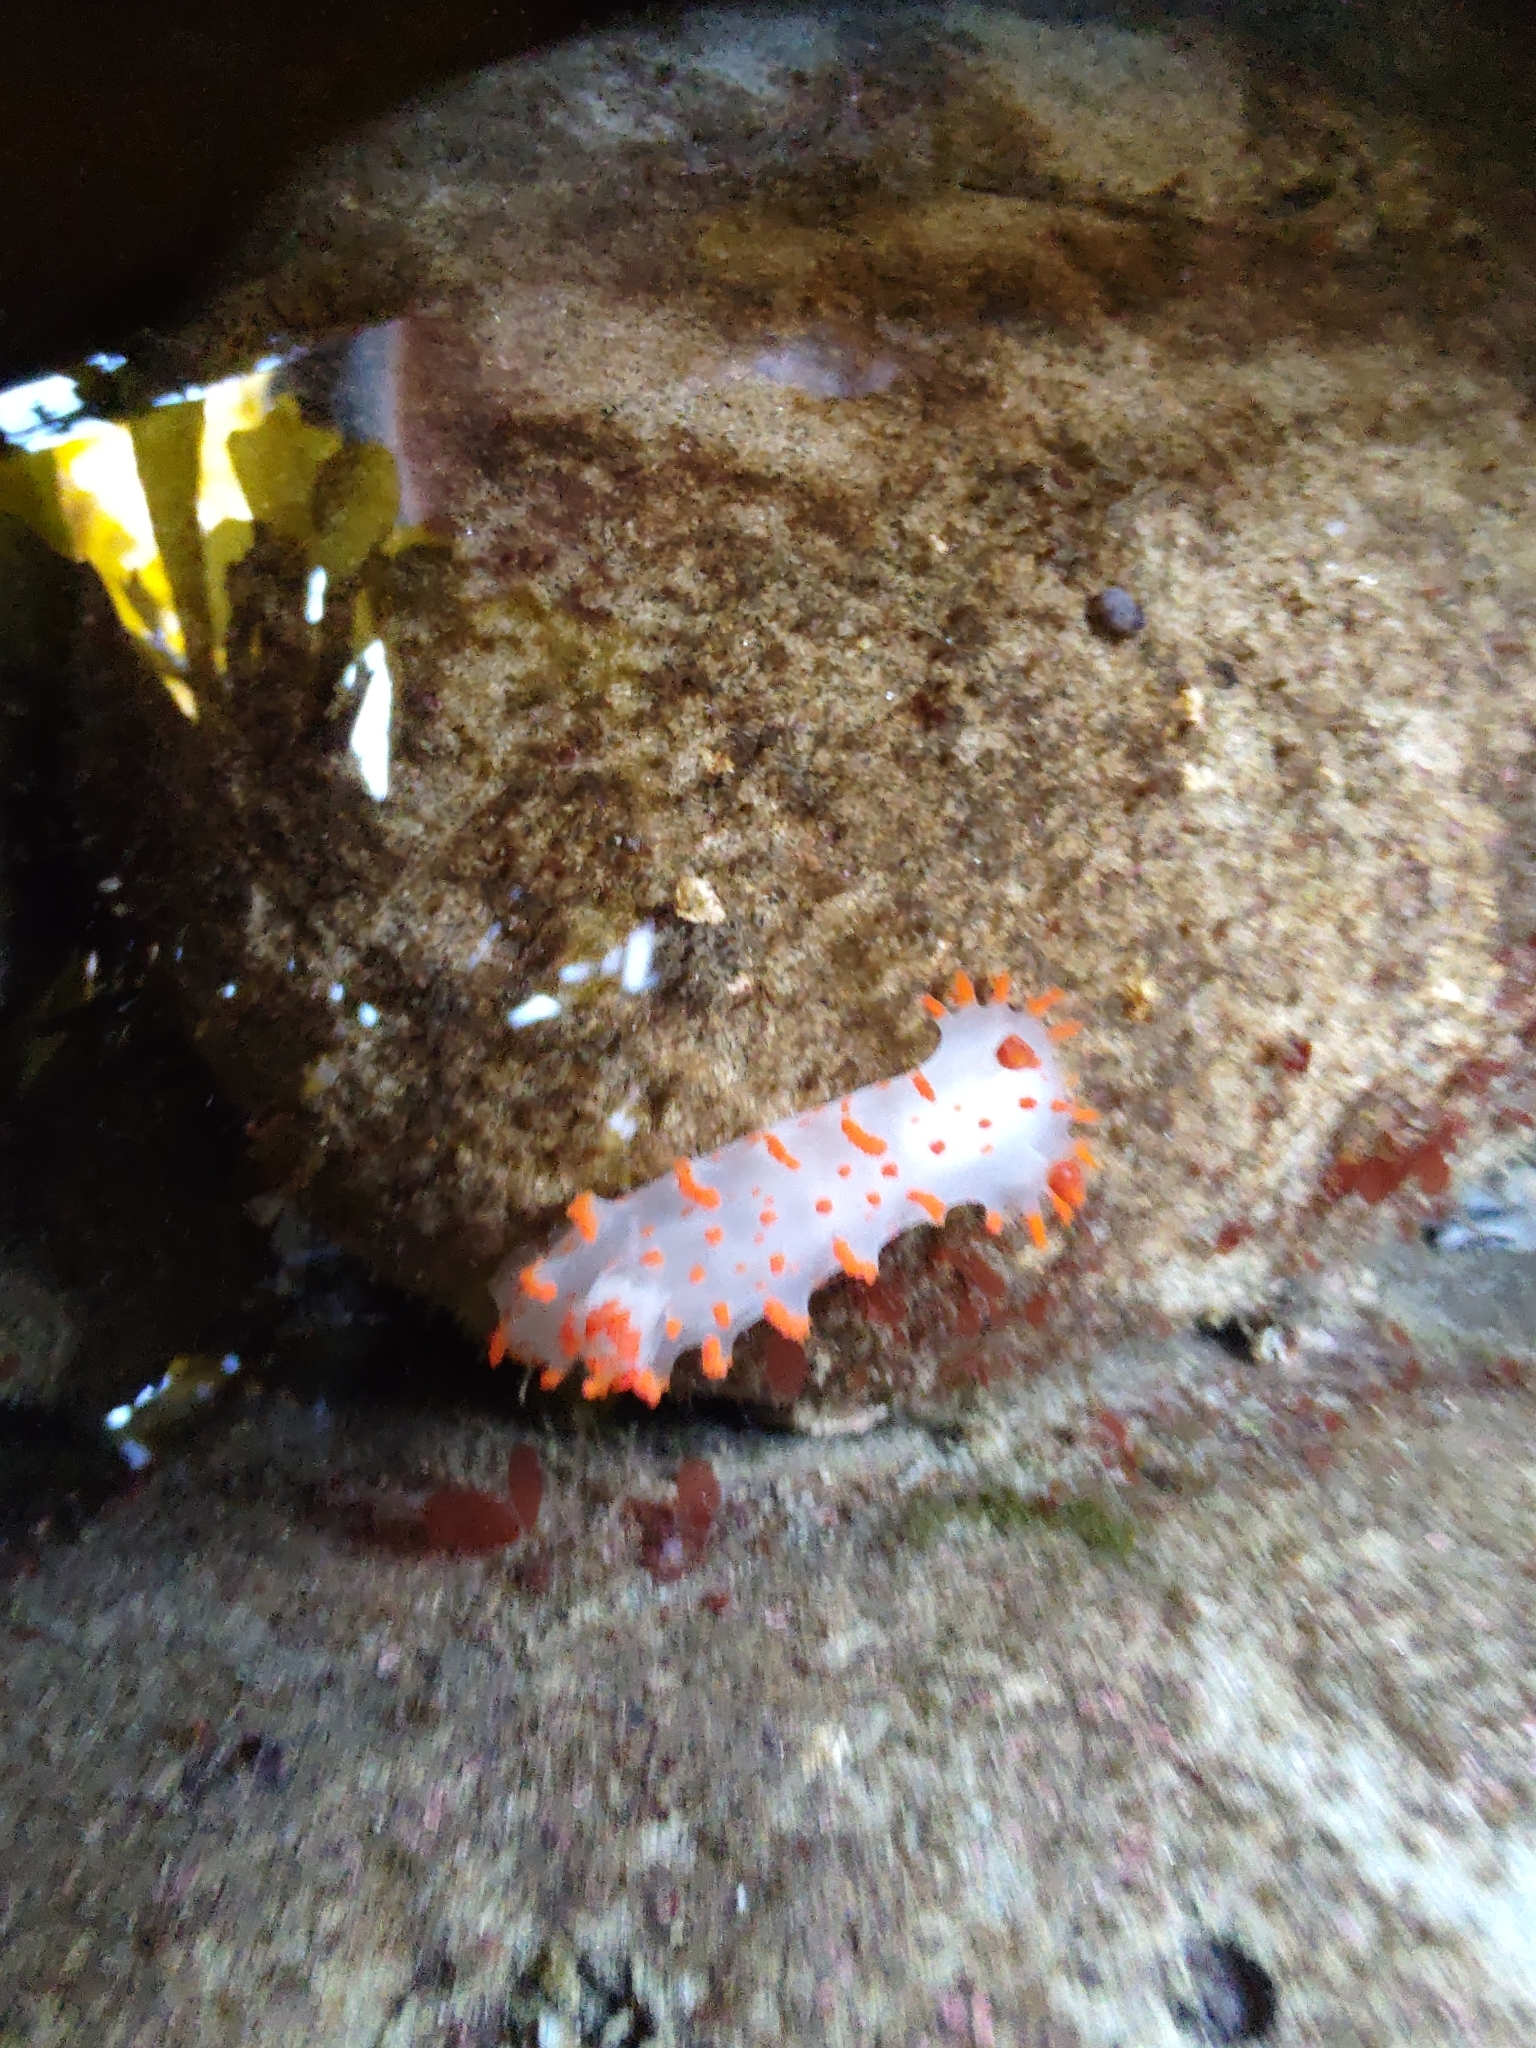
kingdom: Animalia
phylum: Mollusca
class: Gastropoda
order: Nudibranchia
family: Polyceridae
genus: Triopha
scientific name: Triopha catalinae
